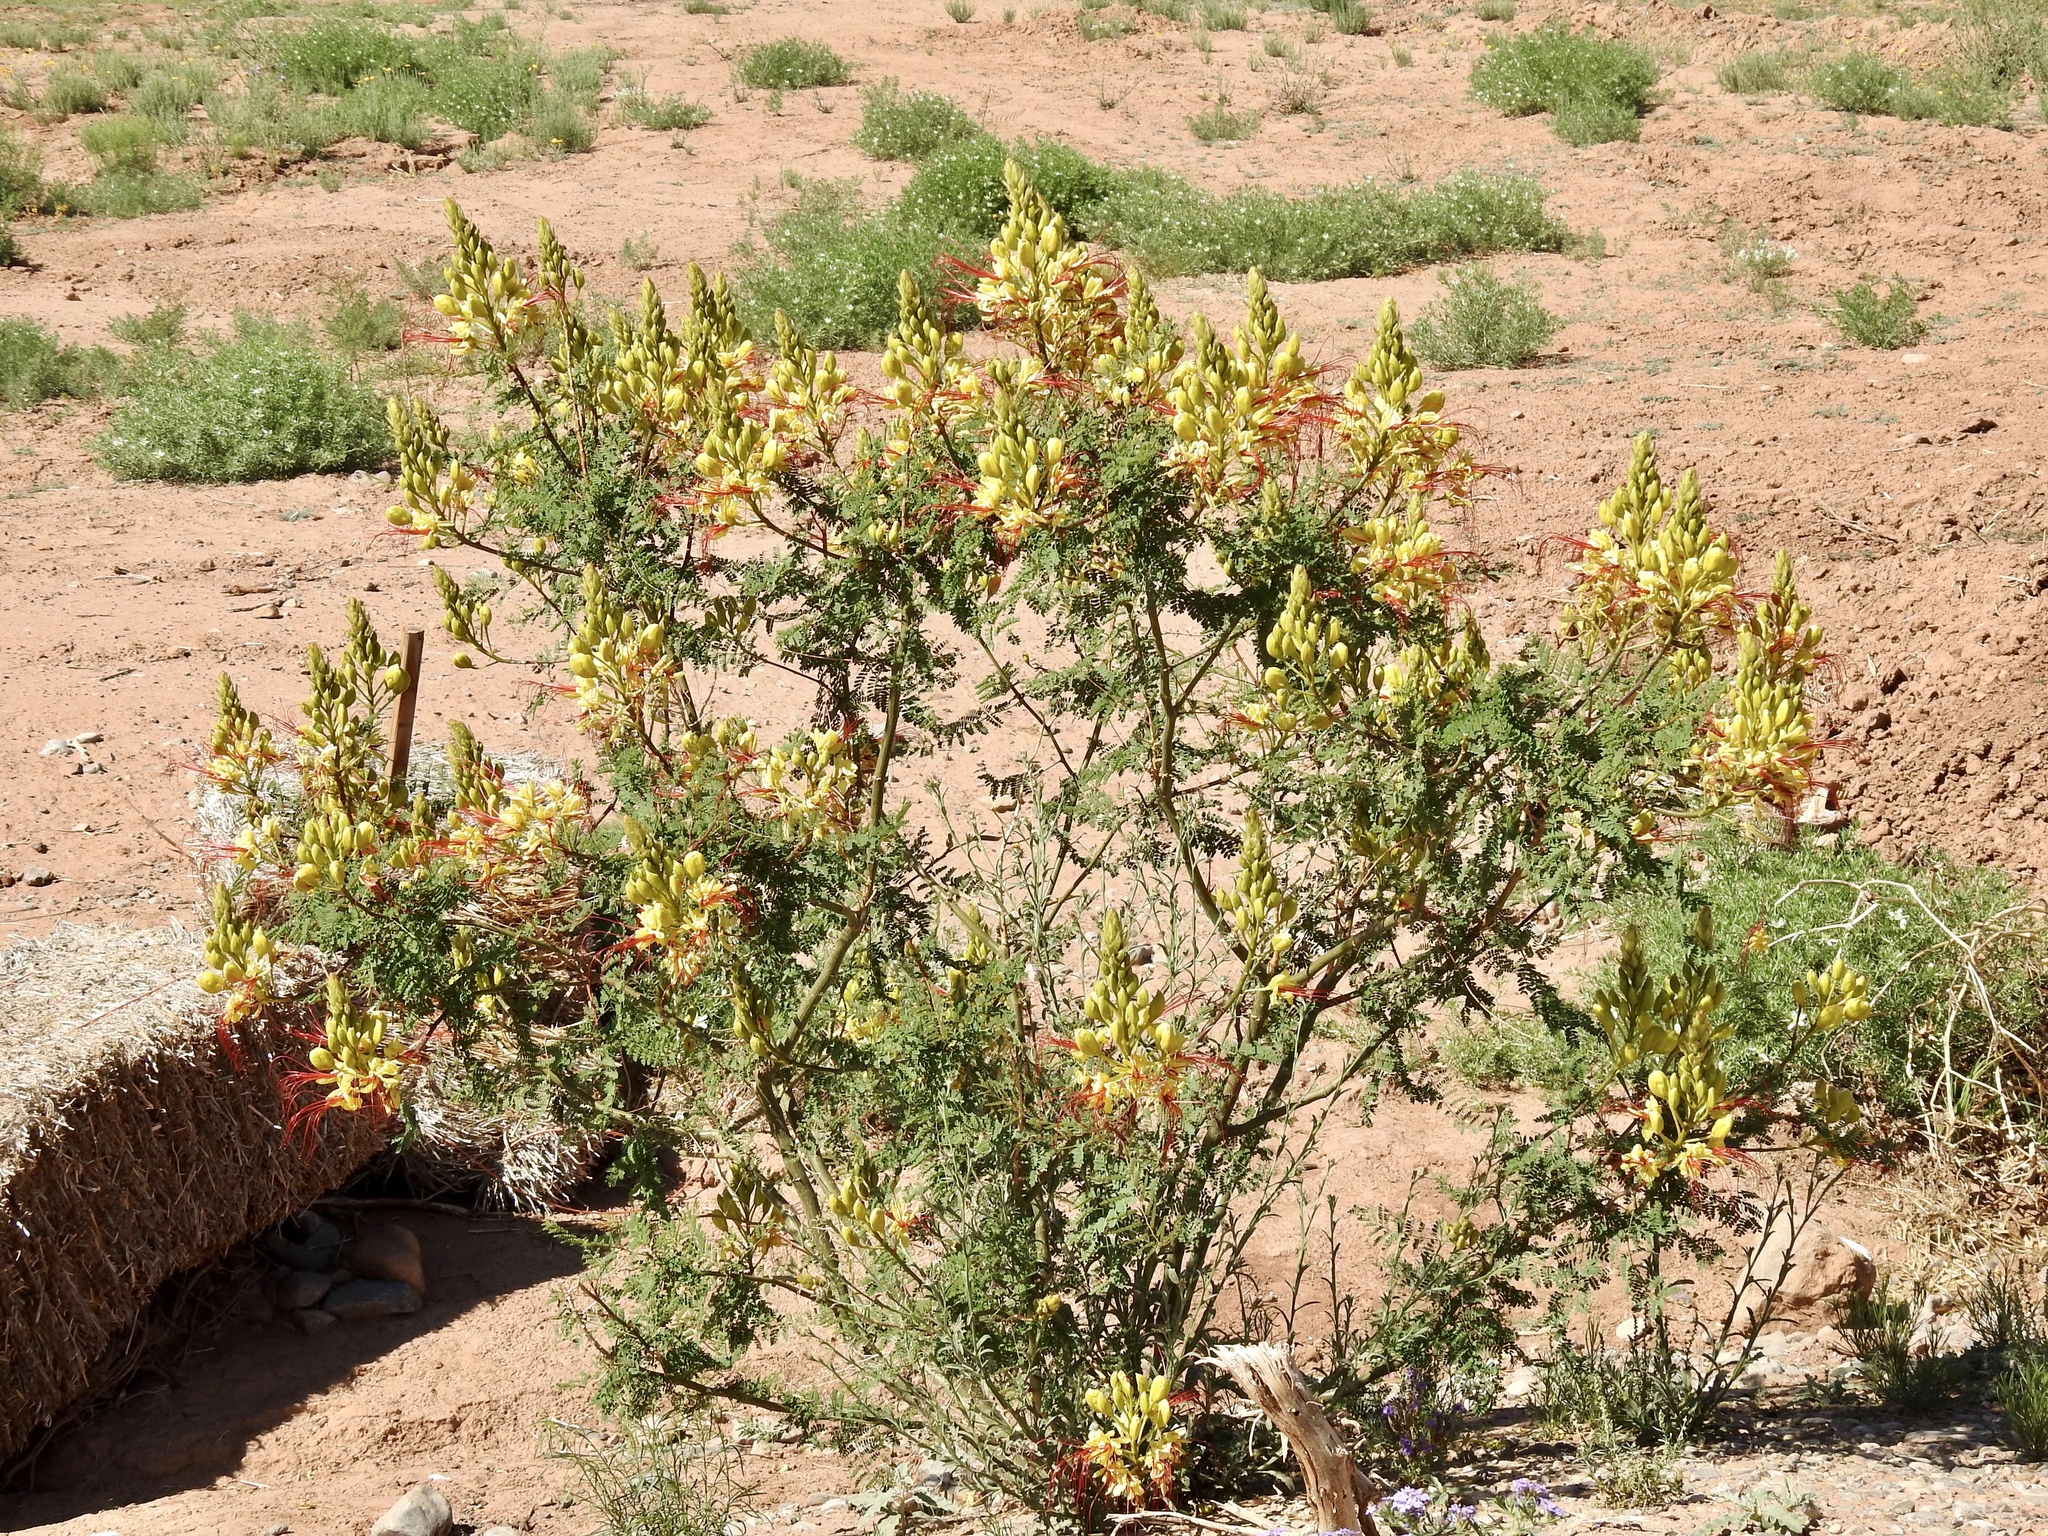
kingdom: Plantae
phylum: Tracheophyta
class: Magnoliopsida
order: Fabales
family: Fabaceae
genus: Erythrostemon
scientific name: Erythrostemon gilliesii
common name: Bird-of-paradise shrub
